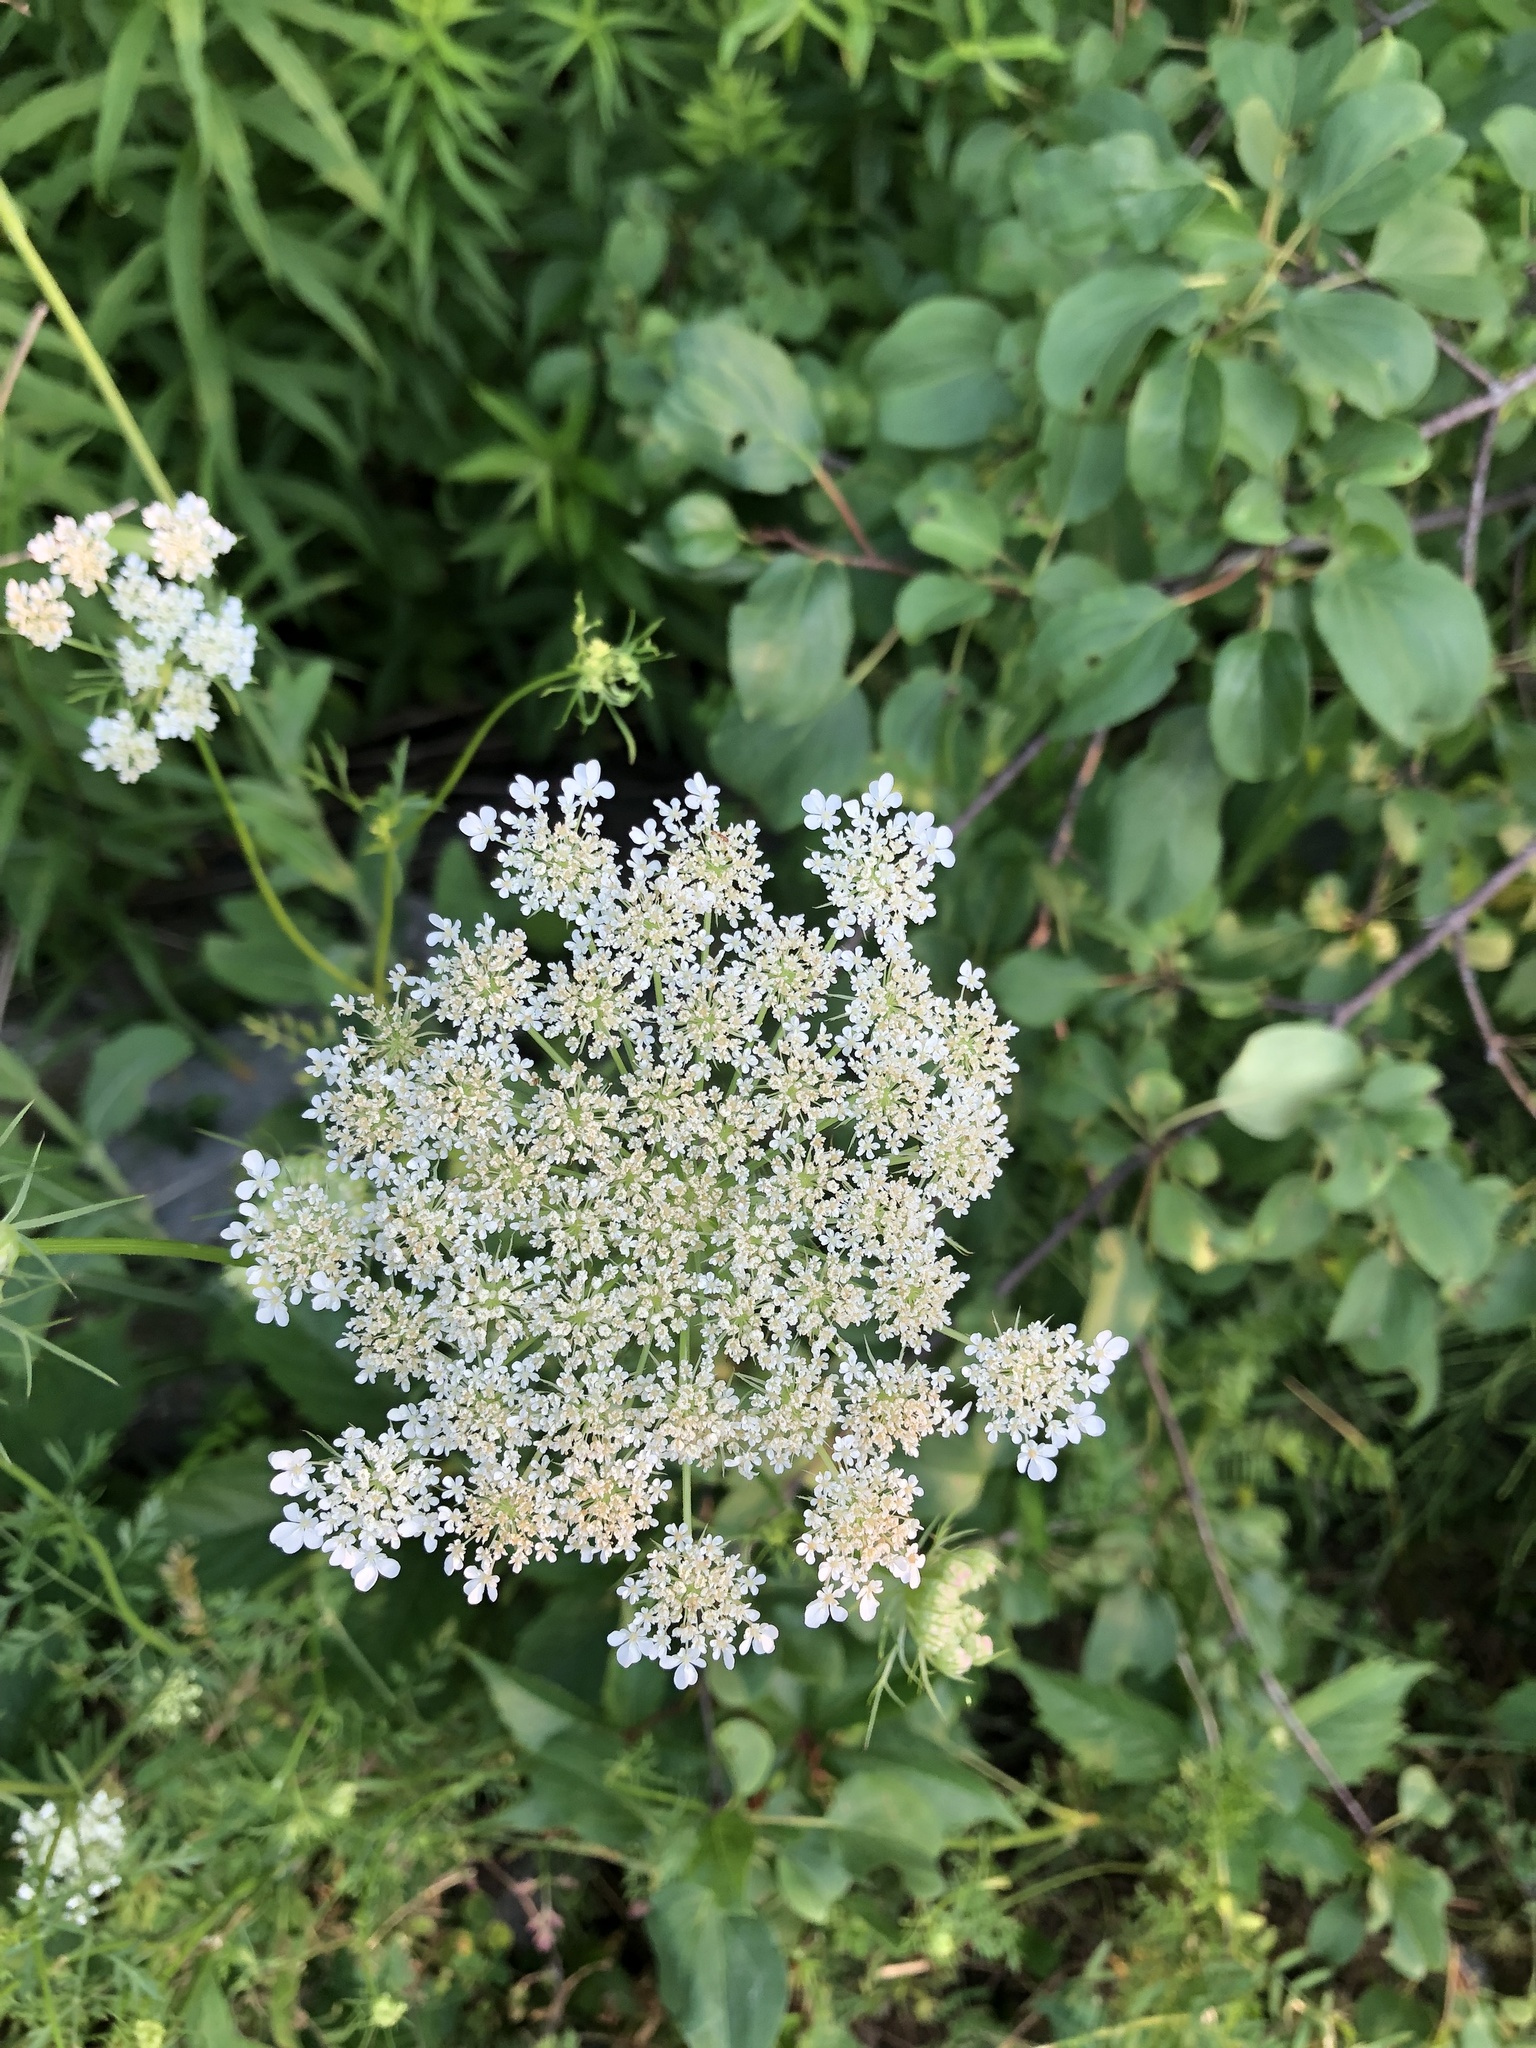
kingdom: Plantae
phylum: Tracheophyta
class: Magnoliopsida
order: Apiales
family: Apiaceae
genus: Daucus
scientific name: Daucus carota
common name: Wild carrot
